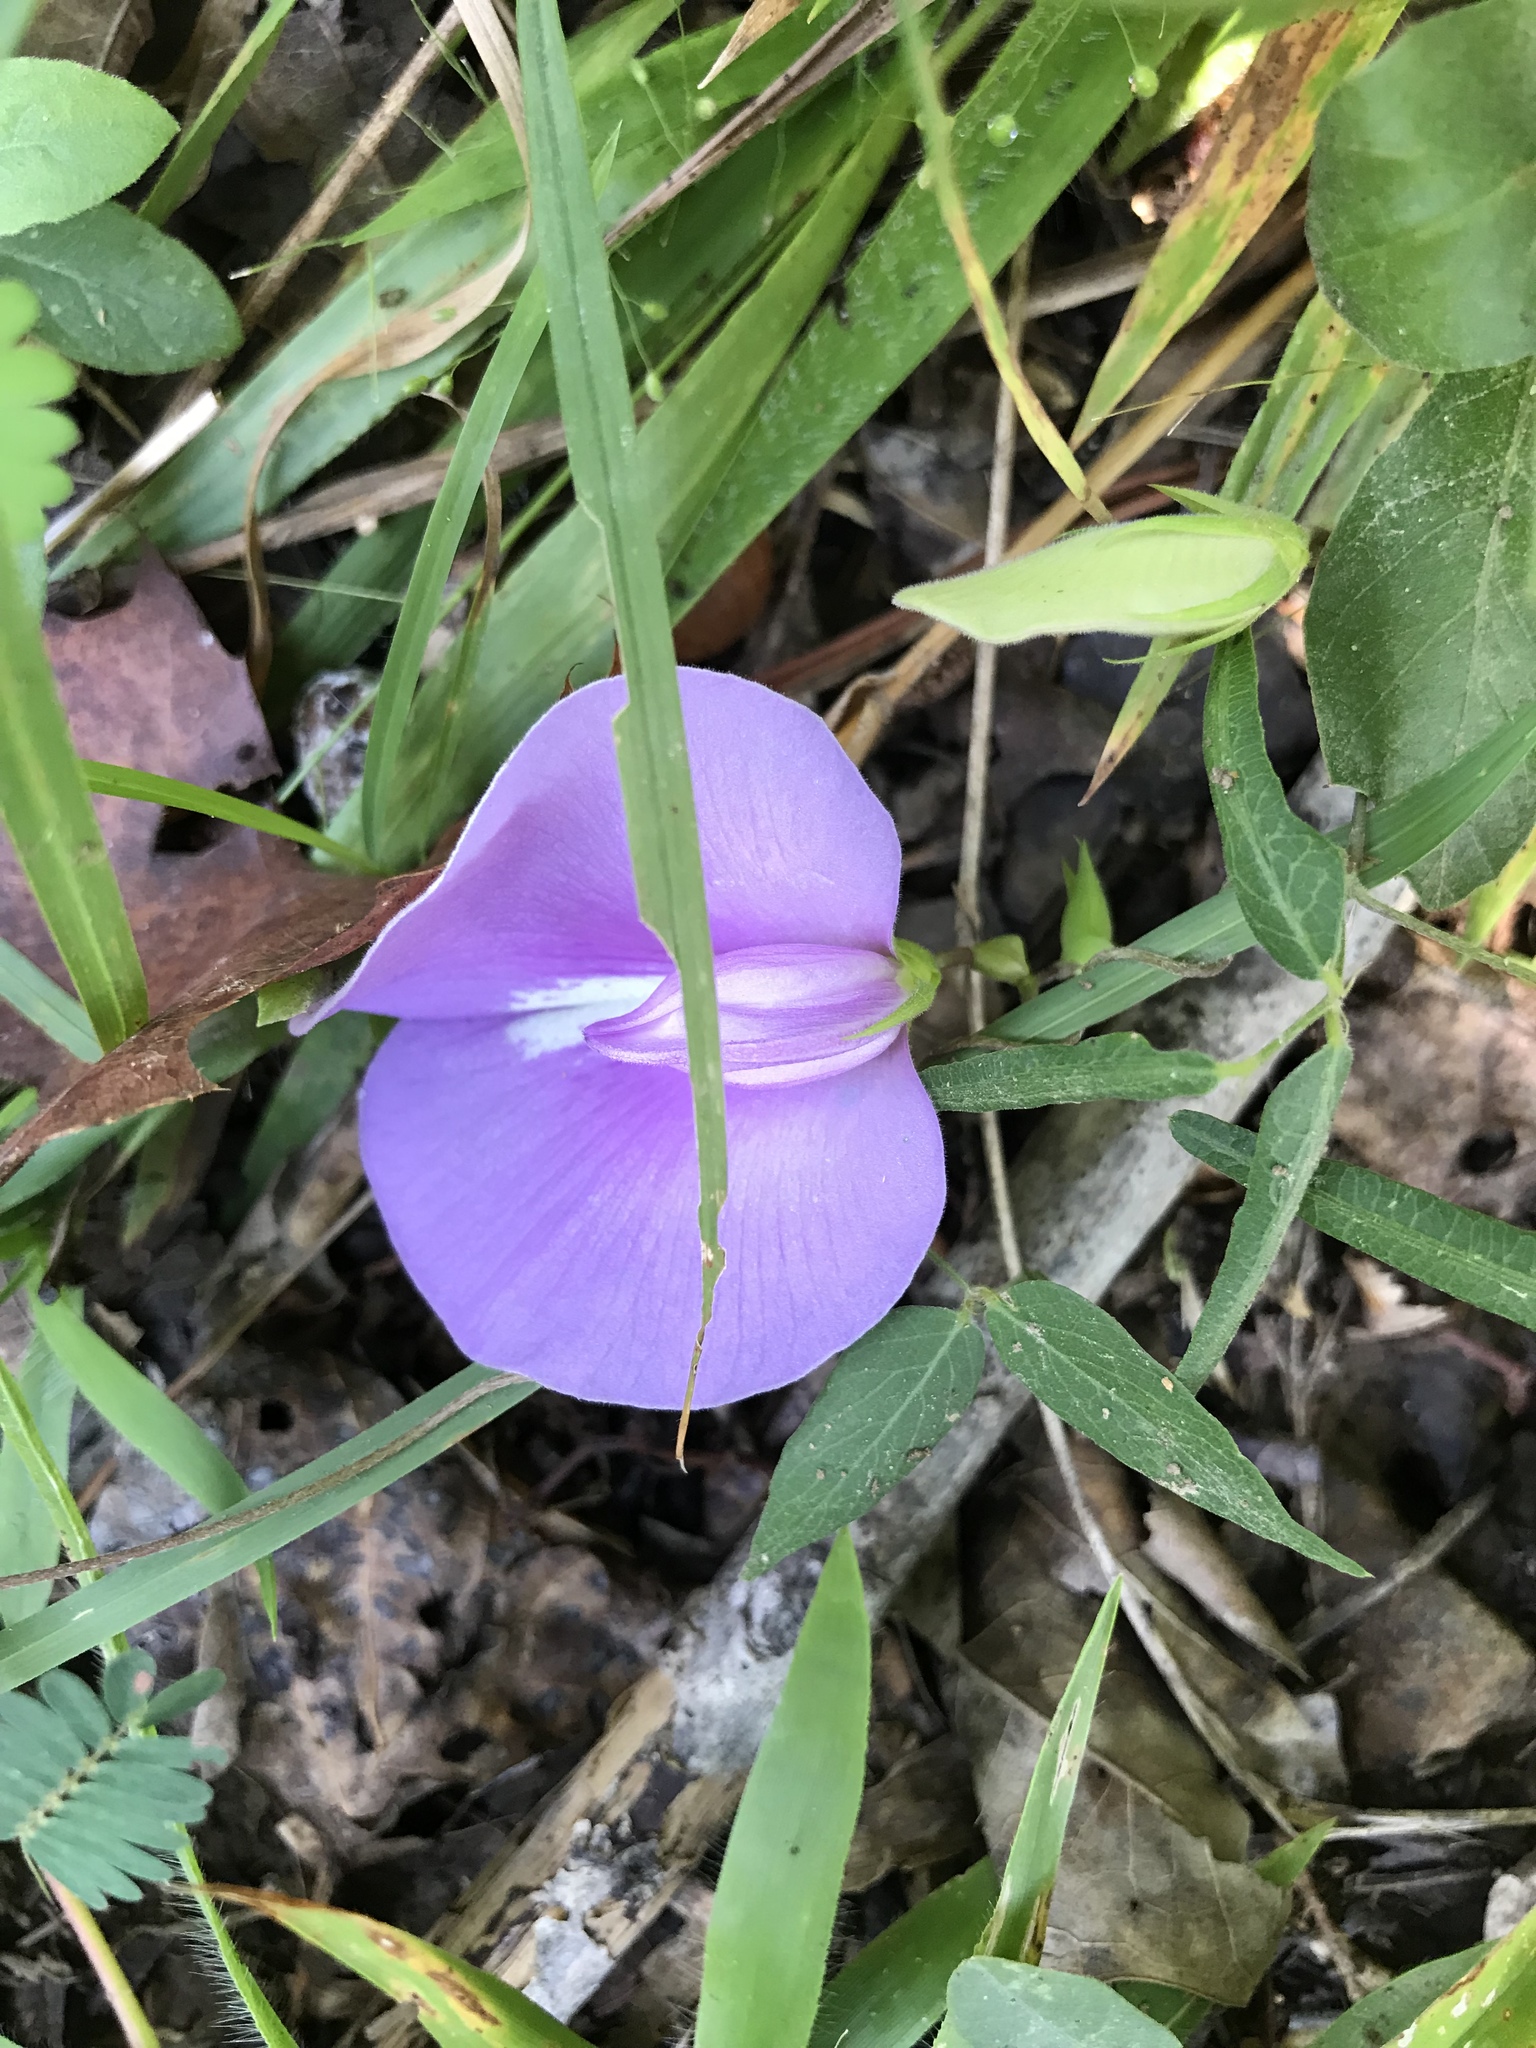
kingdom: Plantae
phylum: Tracheophyta
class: Magnoliopsida
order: Fabales
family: Fabaceae
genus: Centrosema
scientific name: Centrosema virginianum
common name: Butterfly-pea
